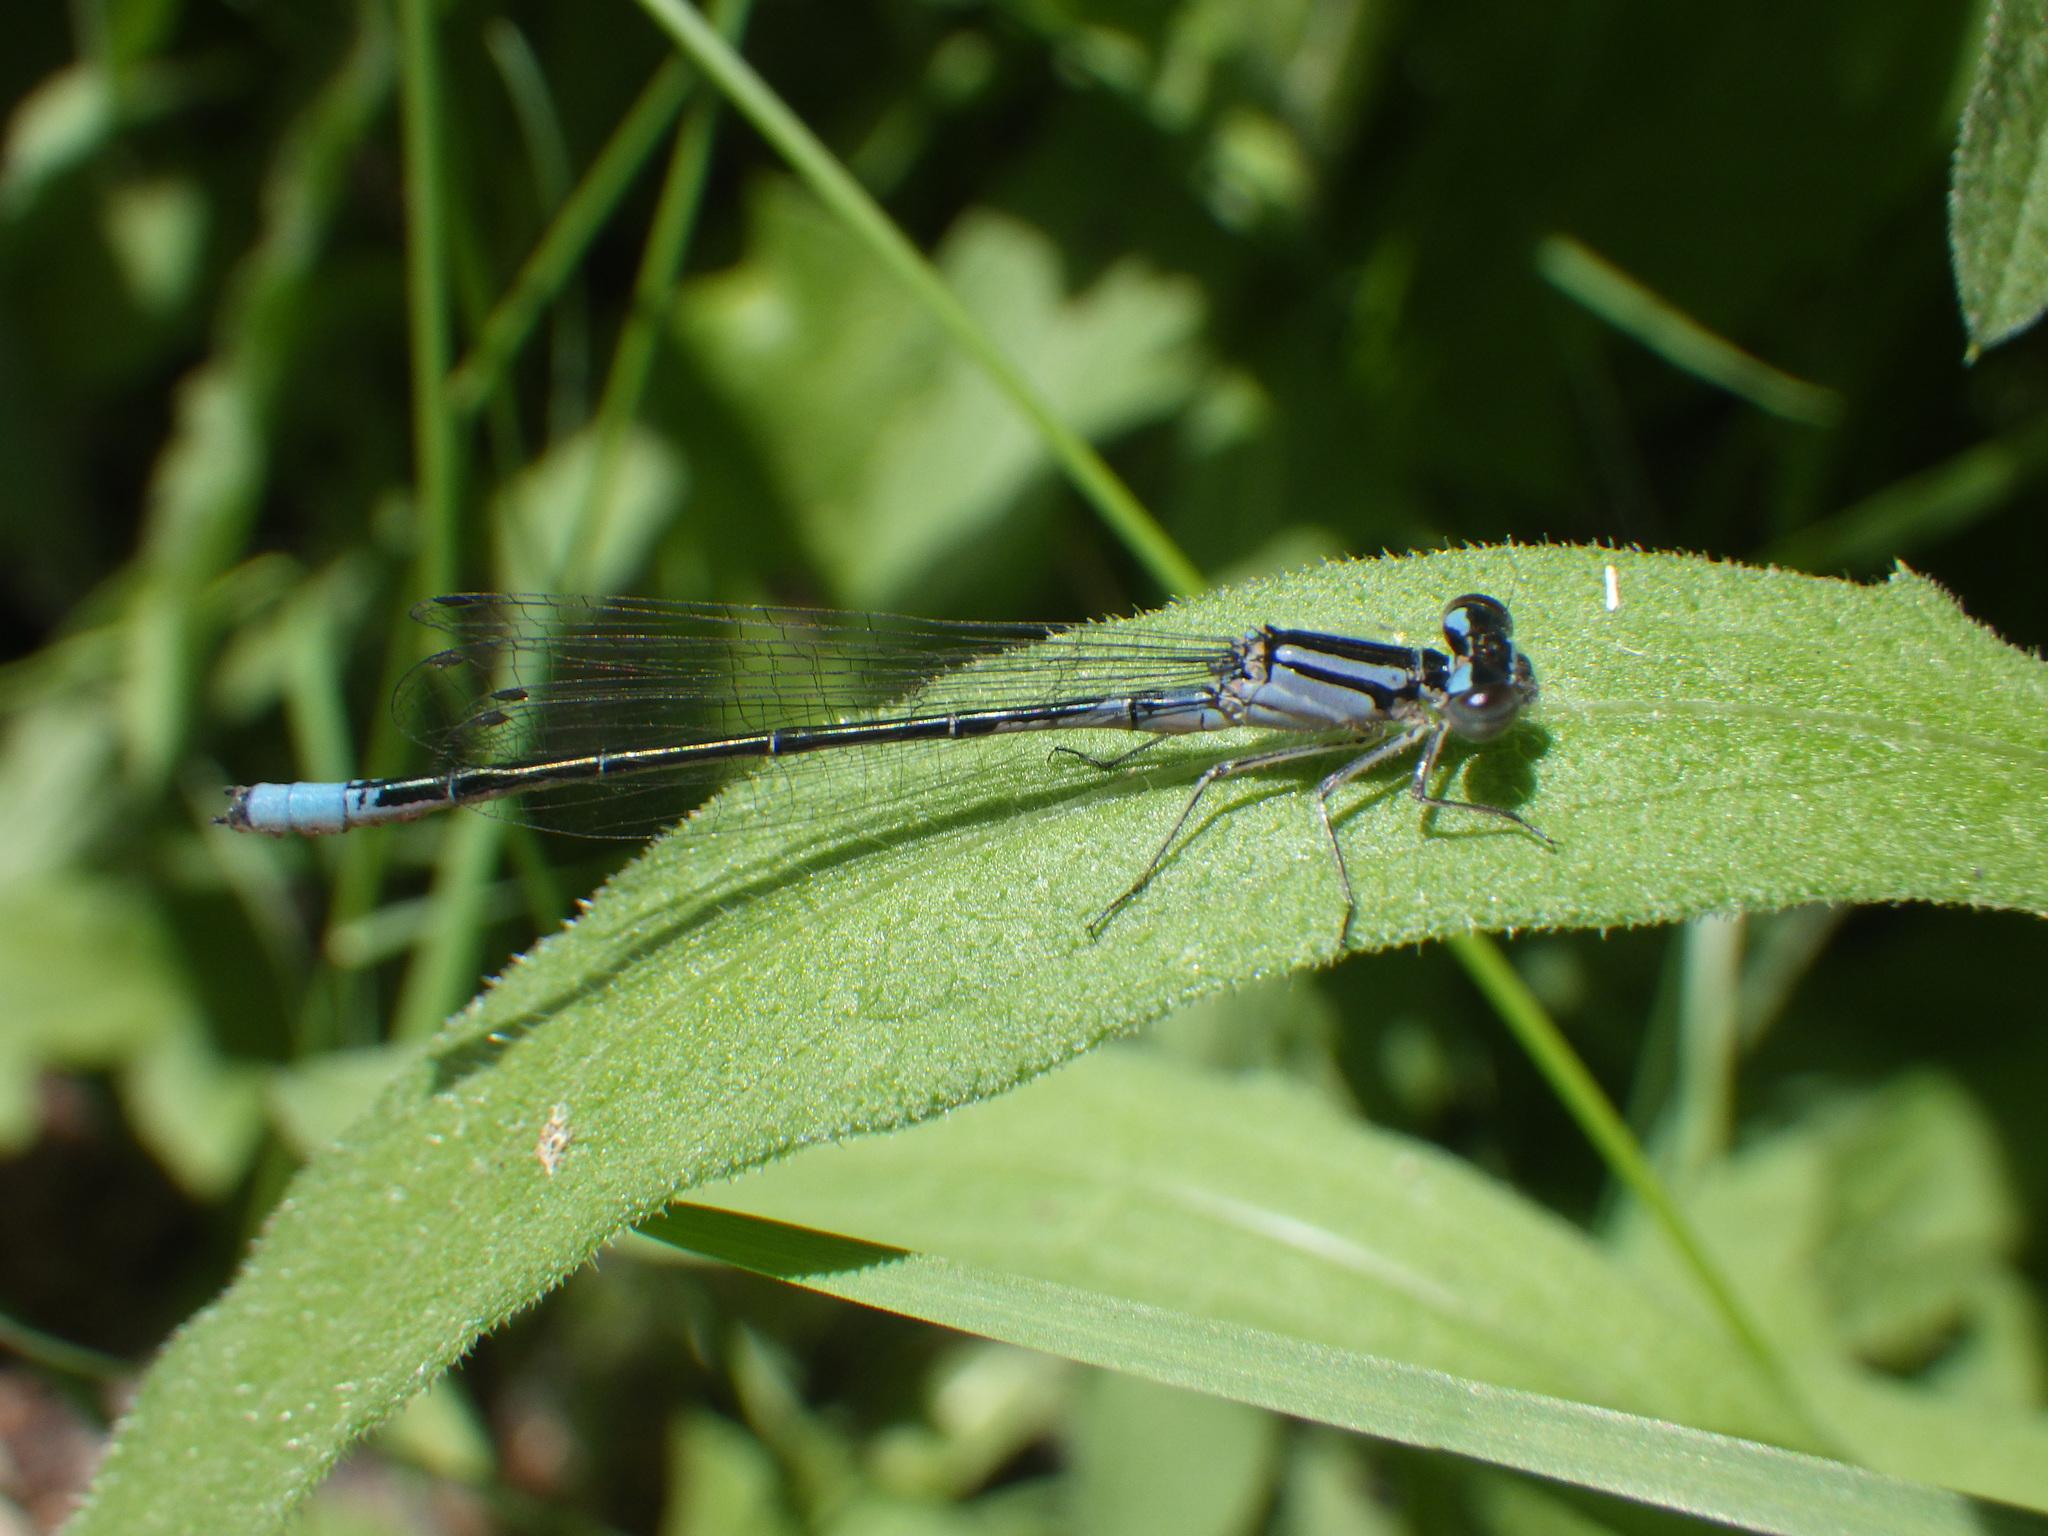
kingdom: Animalia
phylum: Arthropoda
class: Insecta
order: Odonata
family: Coenagrionidae
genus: Enallagma
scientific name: Enallagma aspersum
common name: Azure bluet
